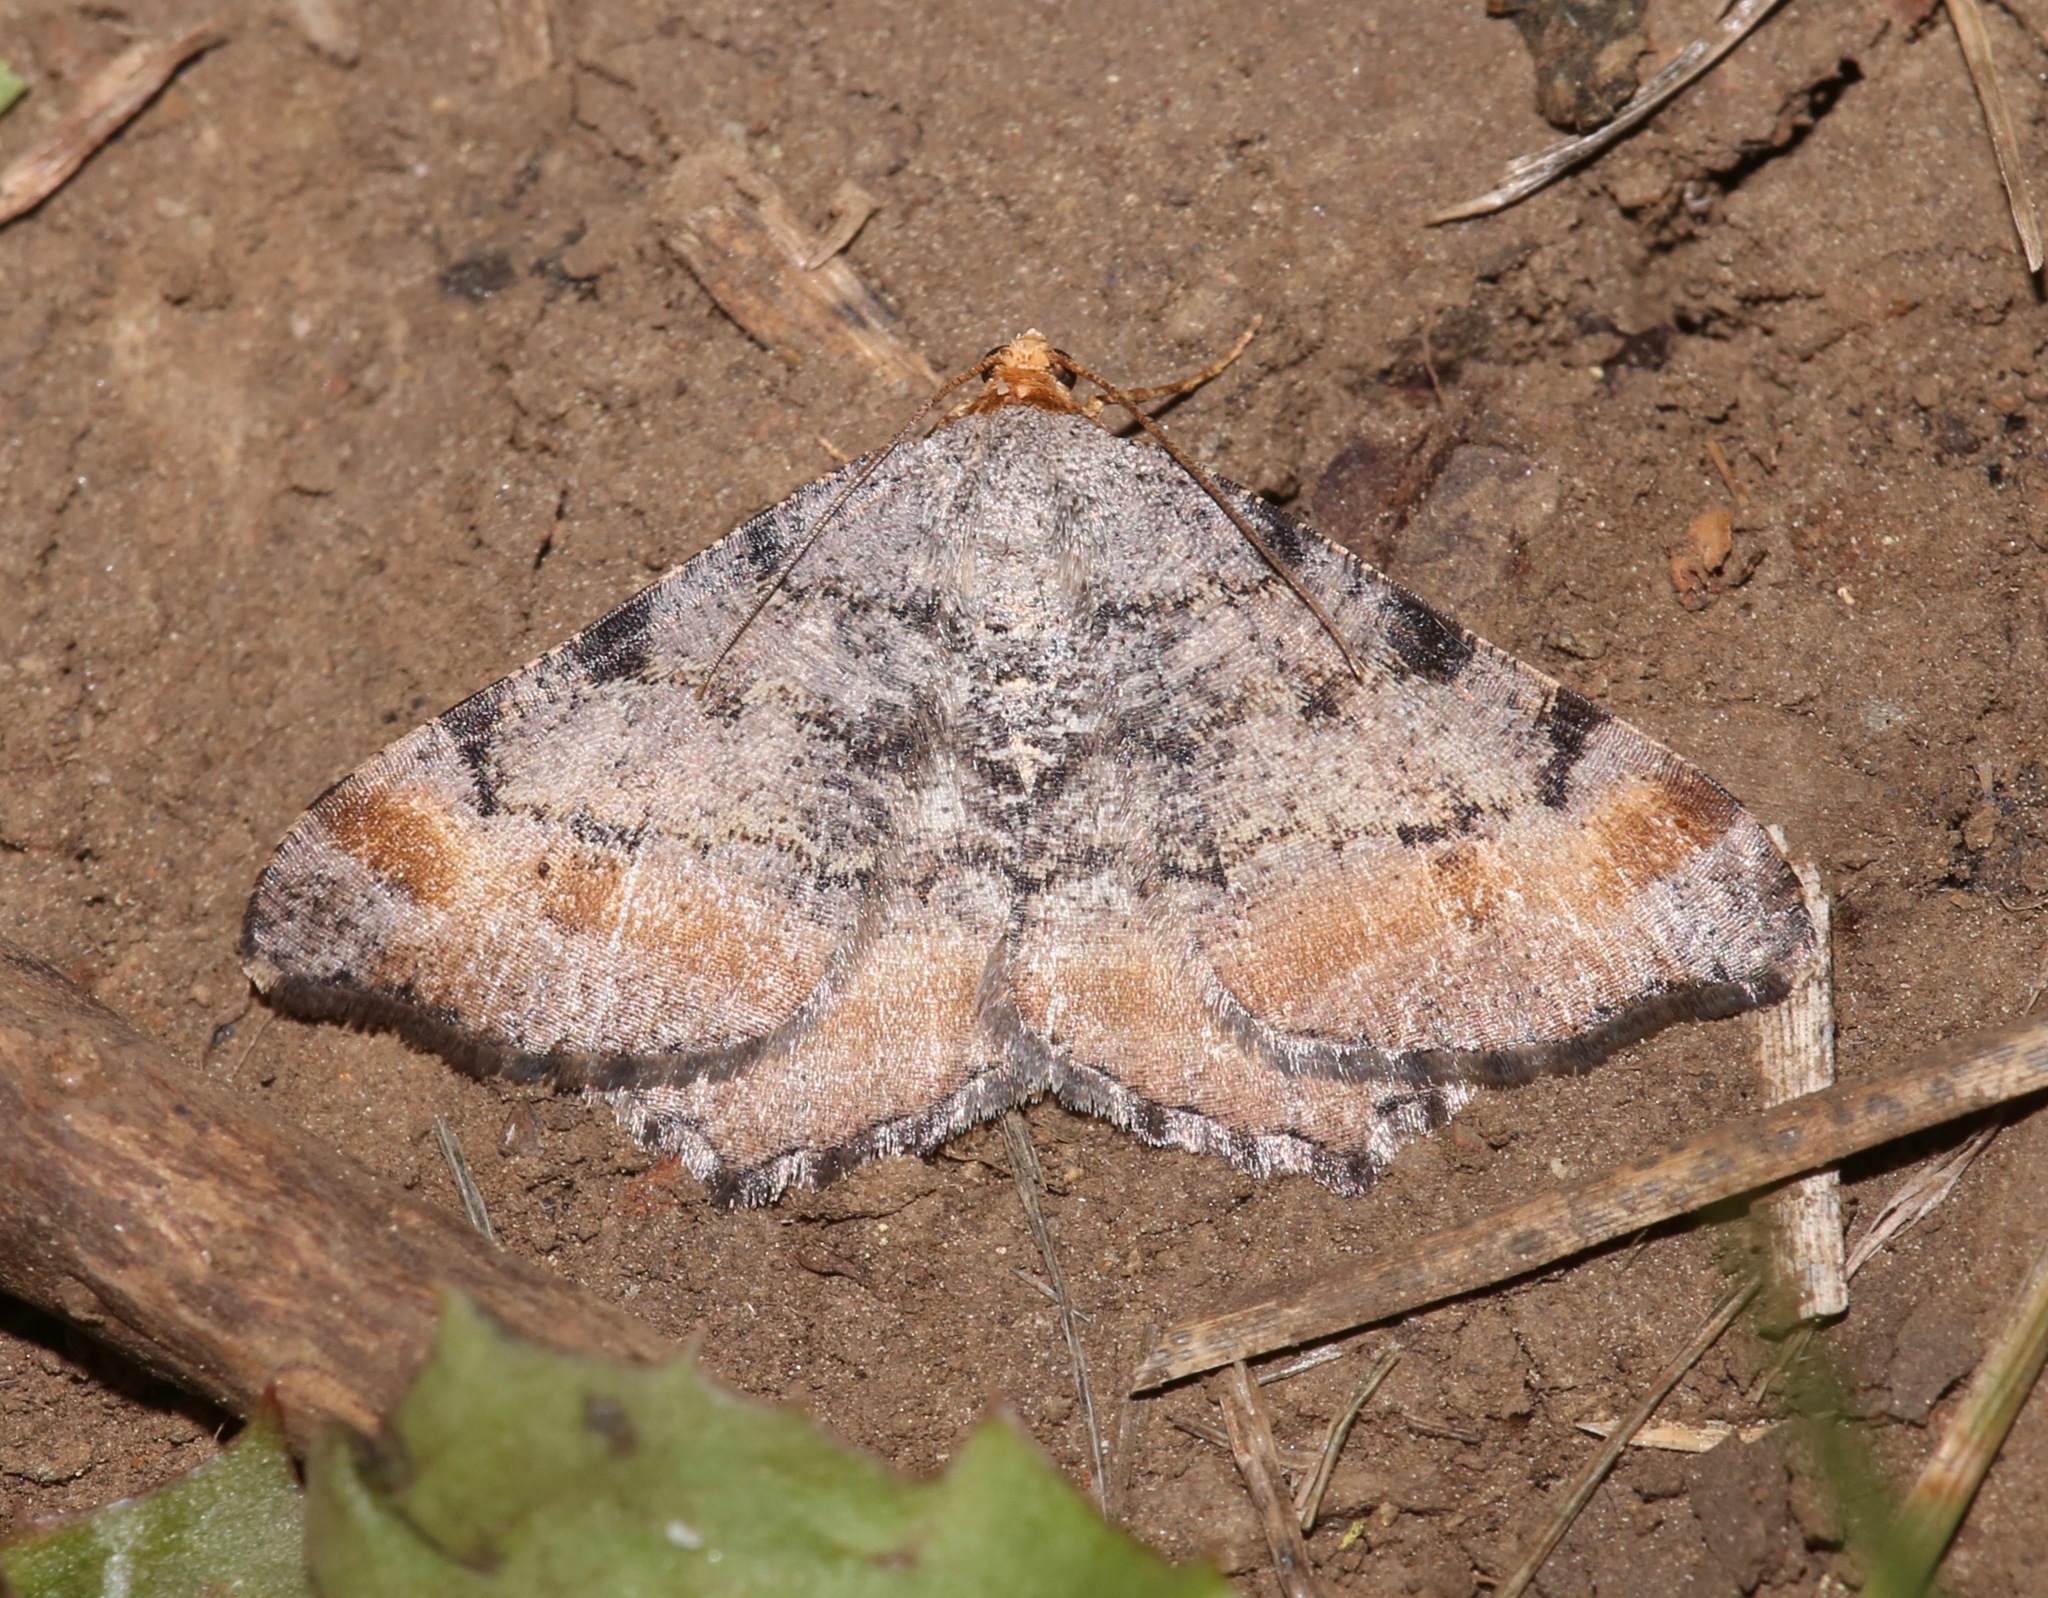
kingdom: Animalia
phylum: Arthropoda
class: Insecta
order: Lepidoptera
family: Geometridae
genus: Macaria
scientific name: Macaria adonis
